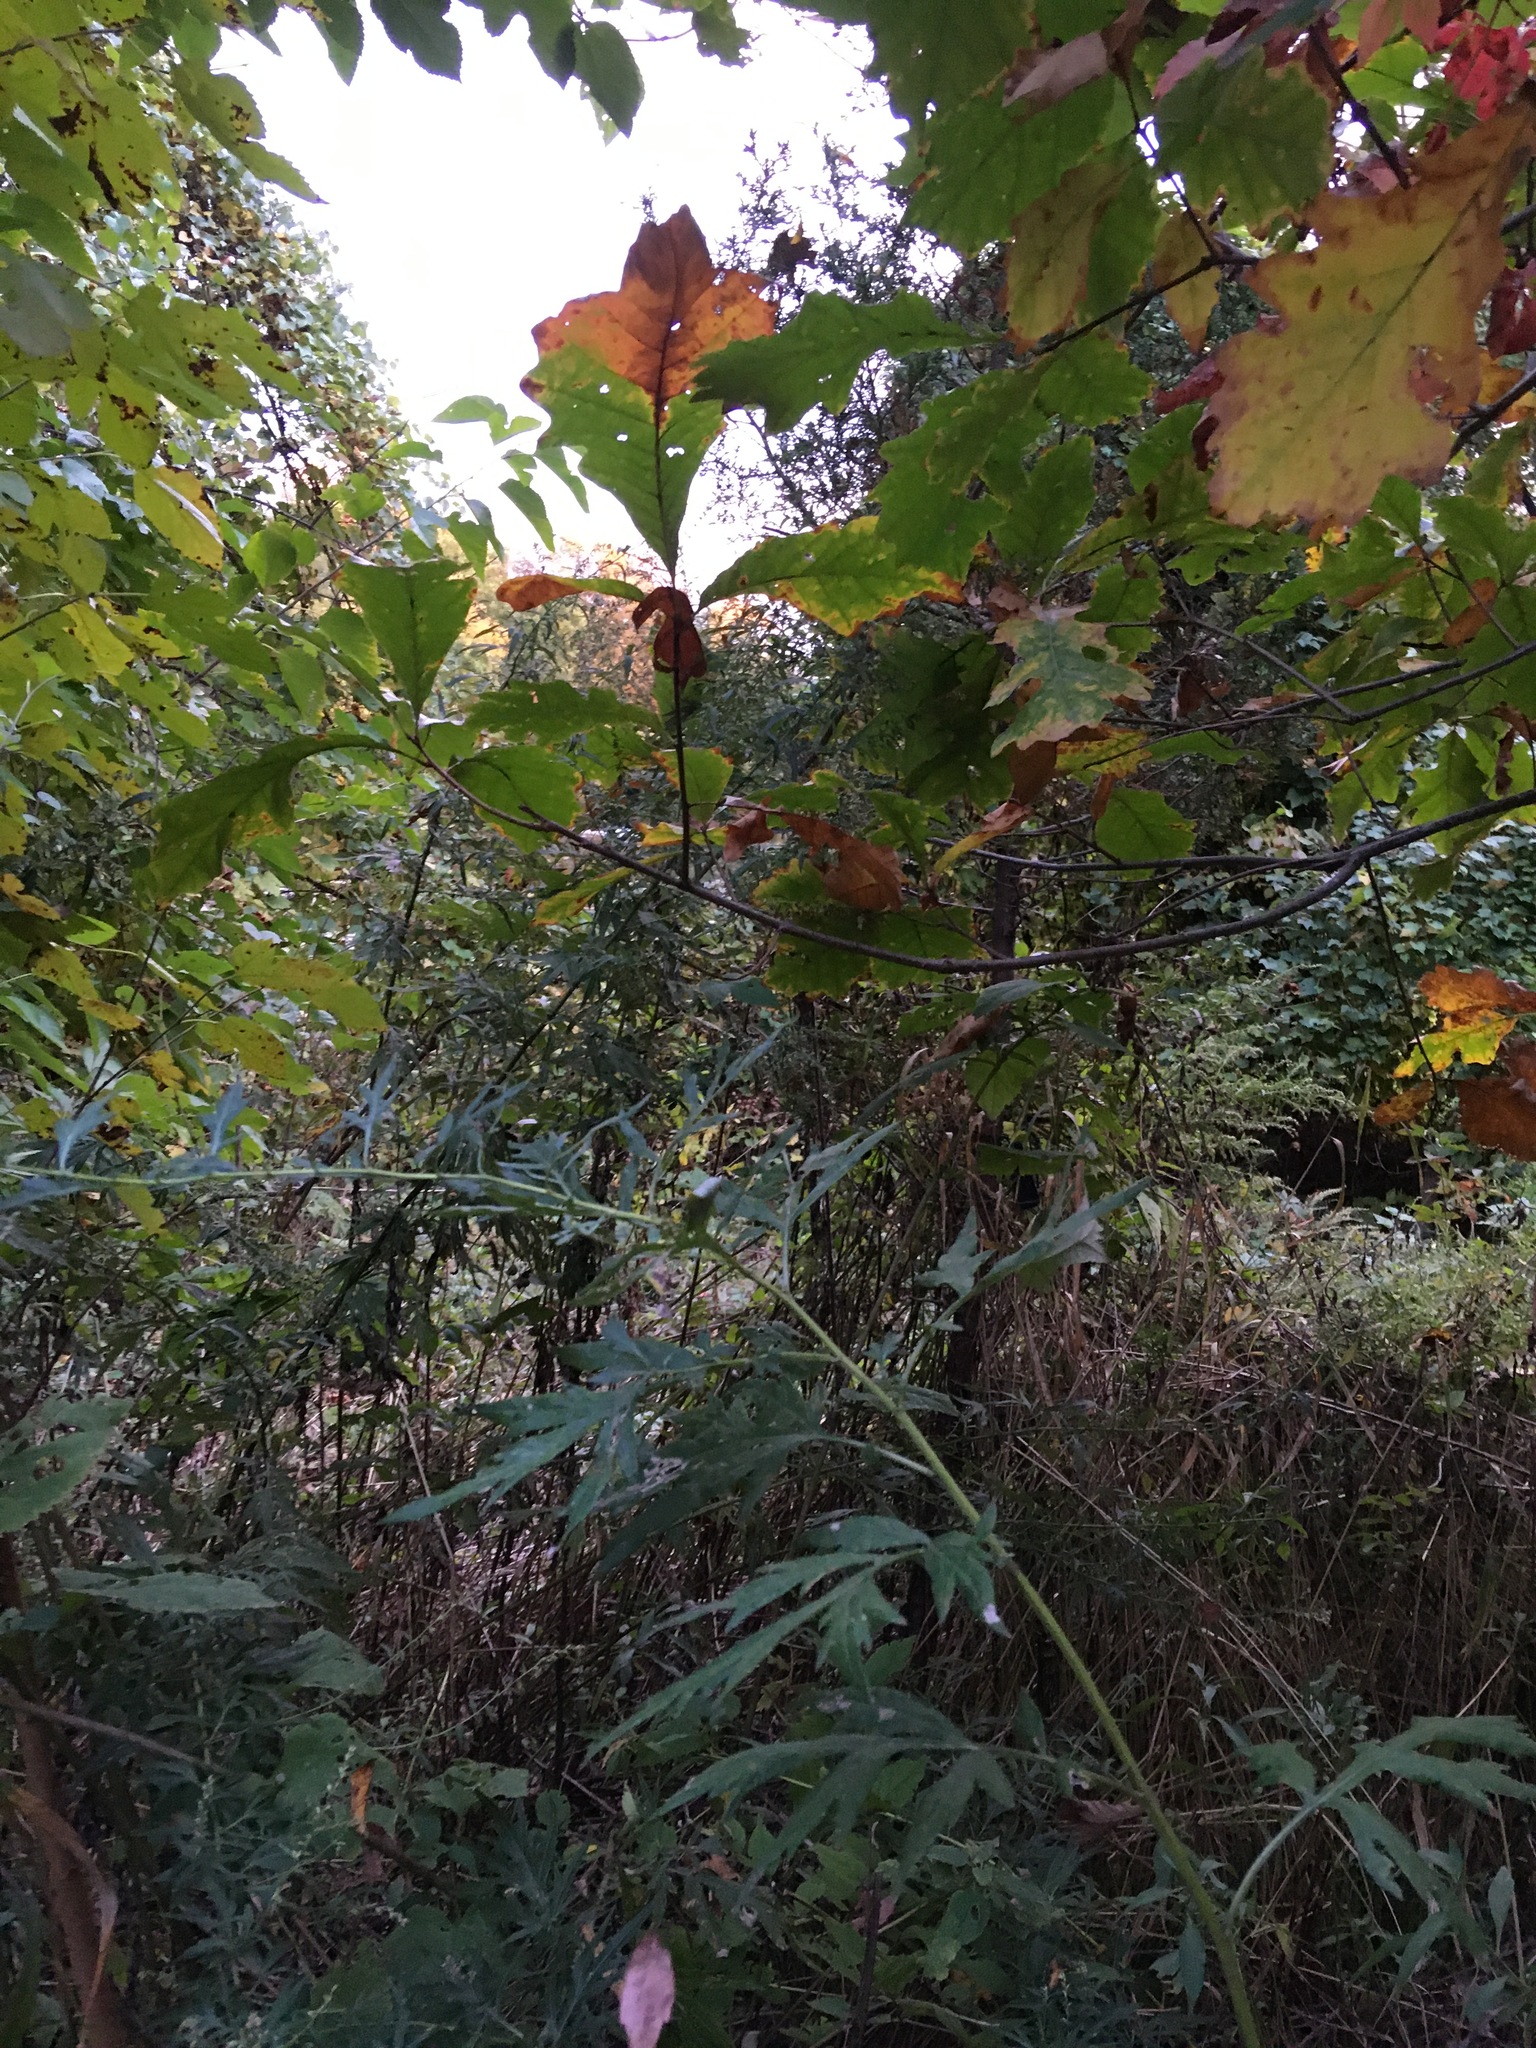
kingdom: Plantae
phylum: Tracheophyta
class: Magnoliopsida
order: Asterales
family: Asteraceae
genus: Artemisia
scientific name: Artemisia vulgaris
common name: Mugwort
